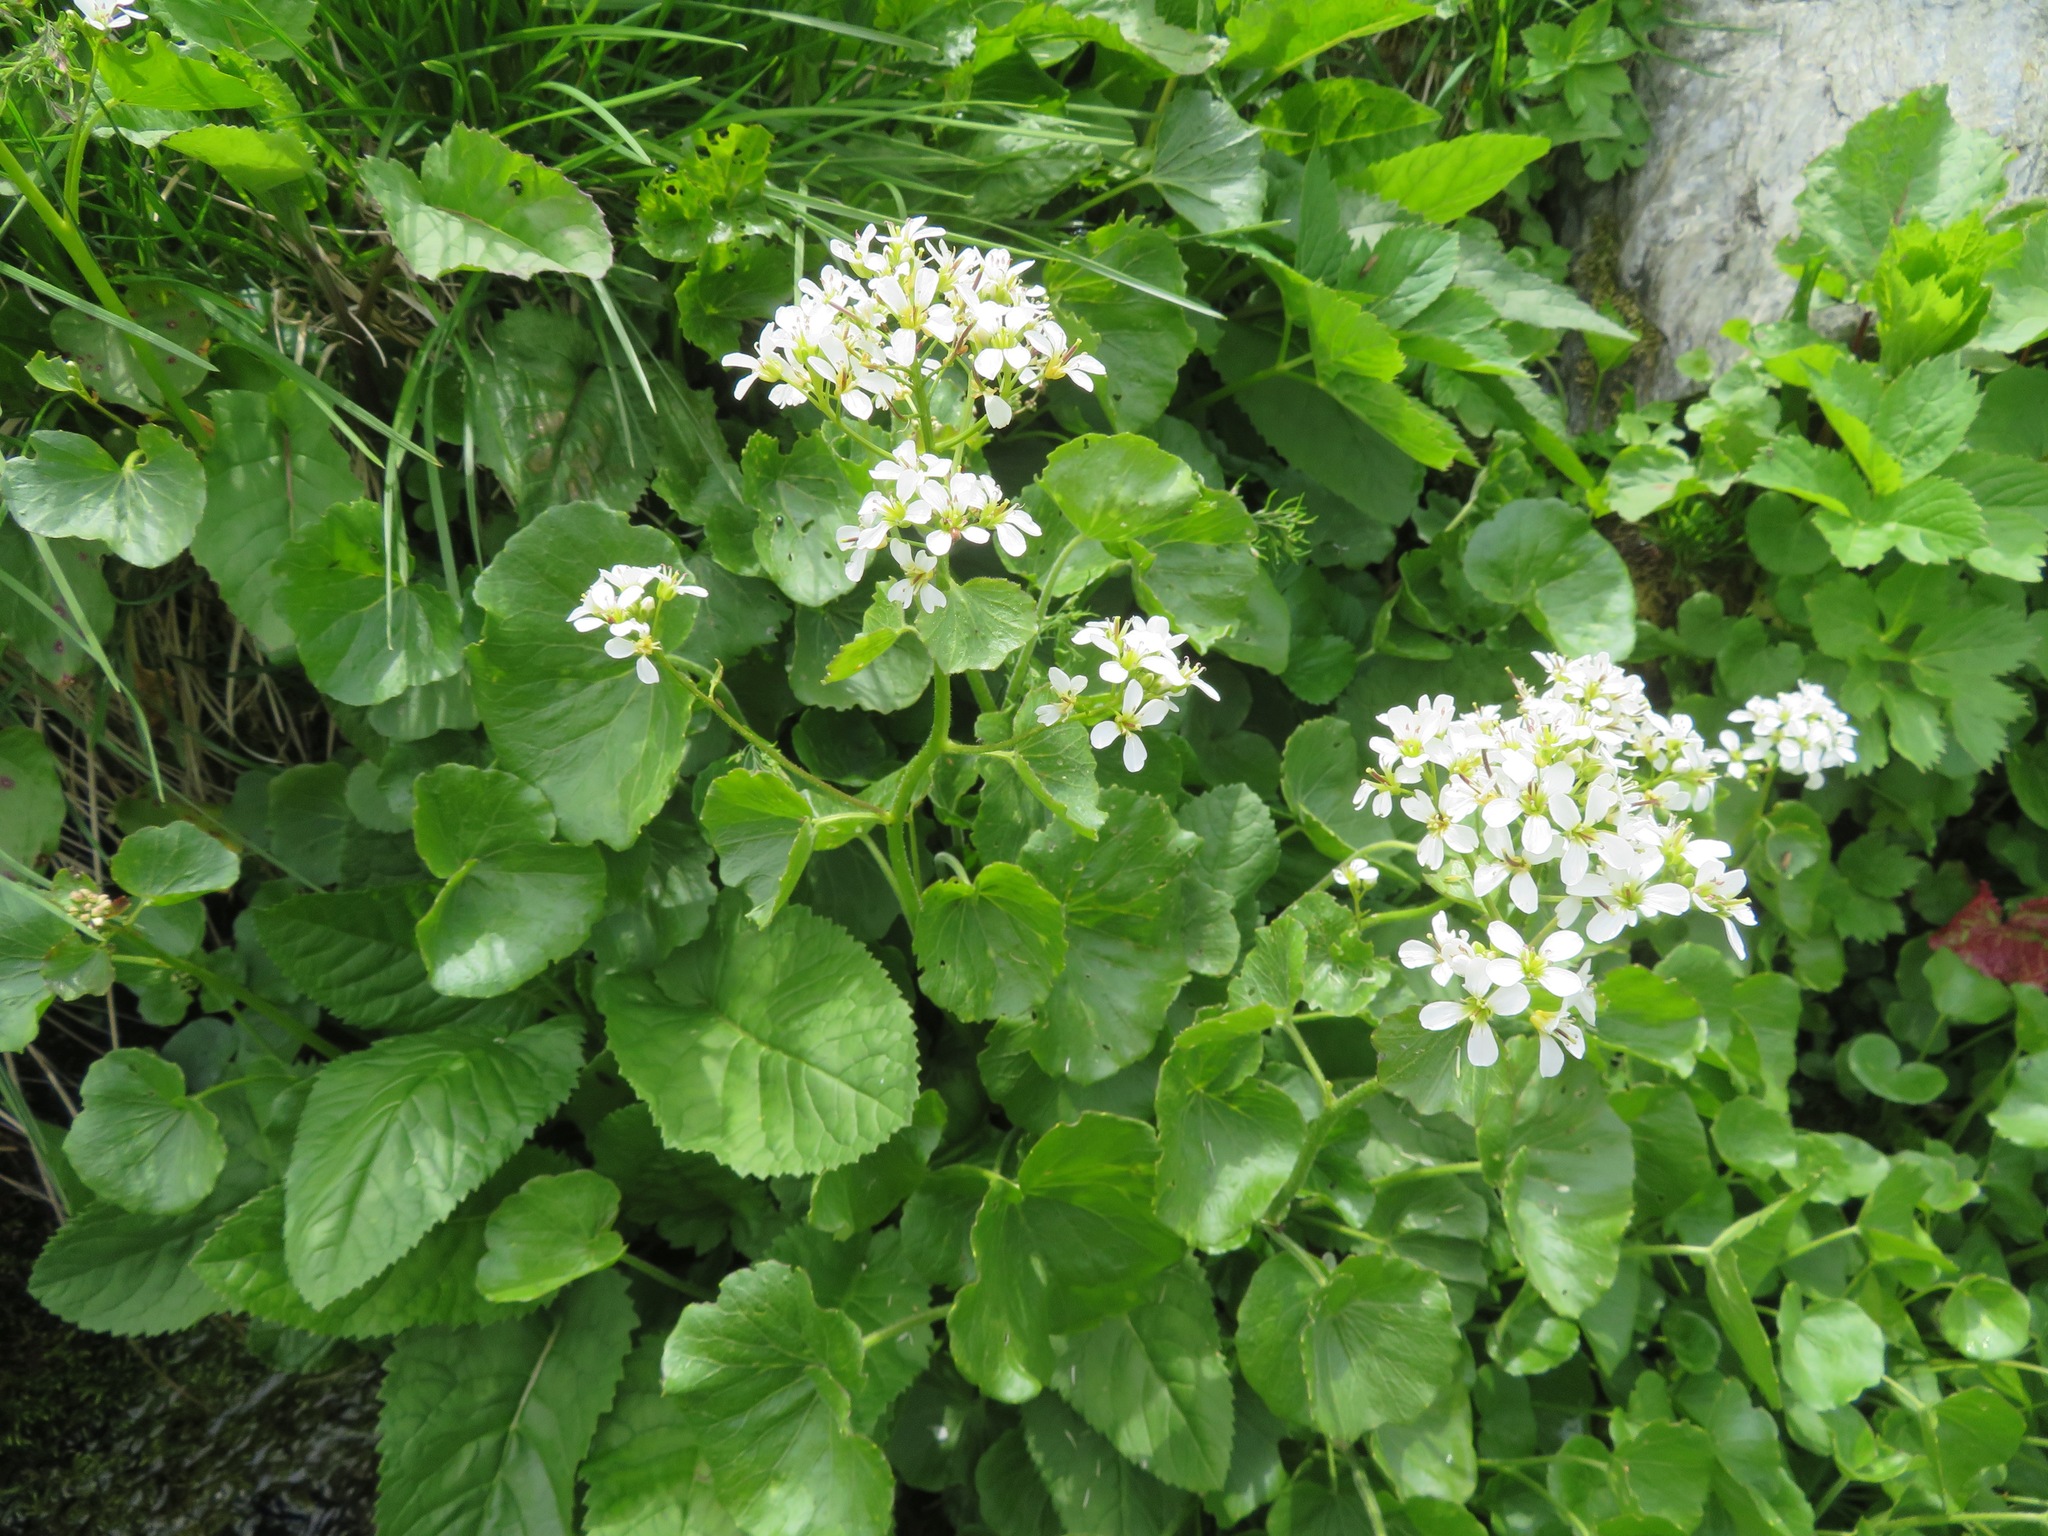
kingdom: Plantae
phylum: Tracheophyta
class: Magnoliopsida
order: Brassicales
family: Brassicaceae
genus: Cardamine
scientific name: Cardamine asarifolia
